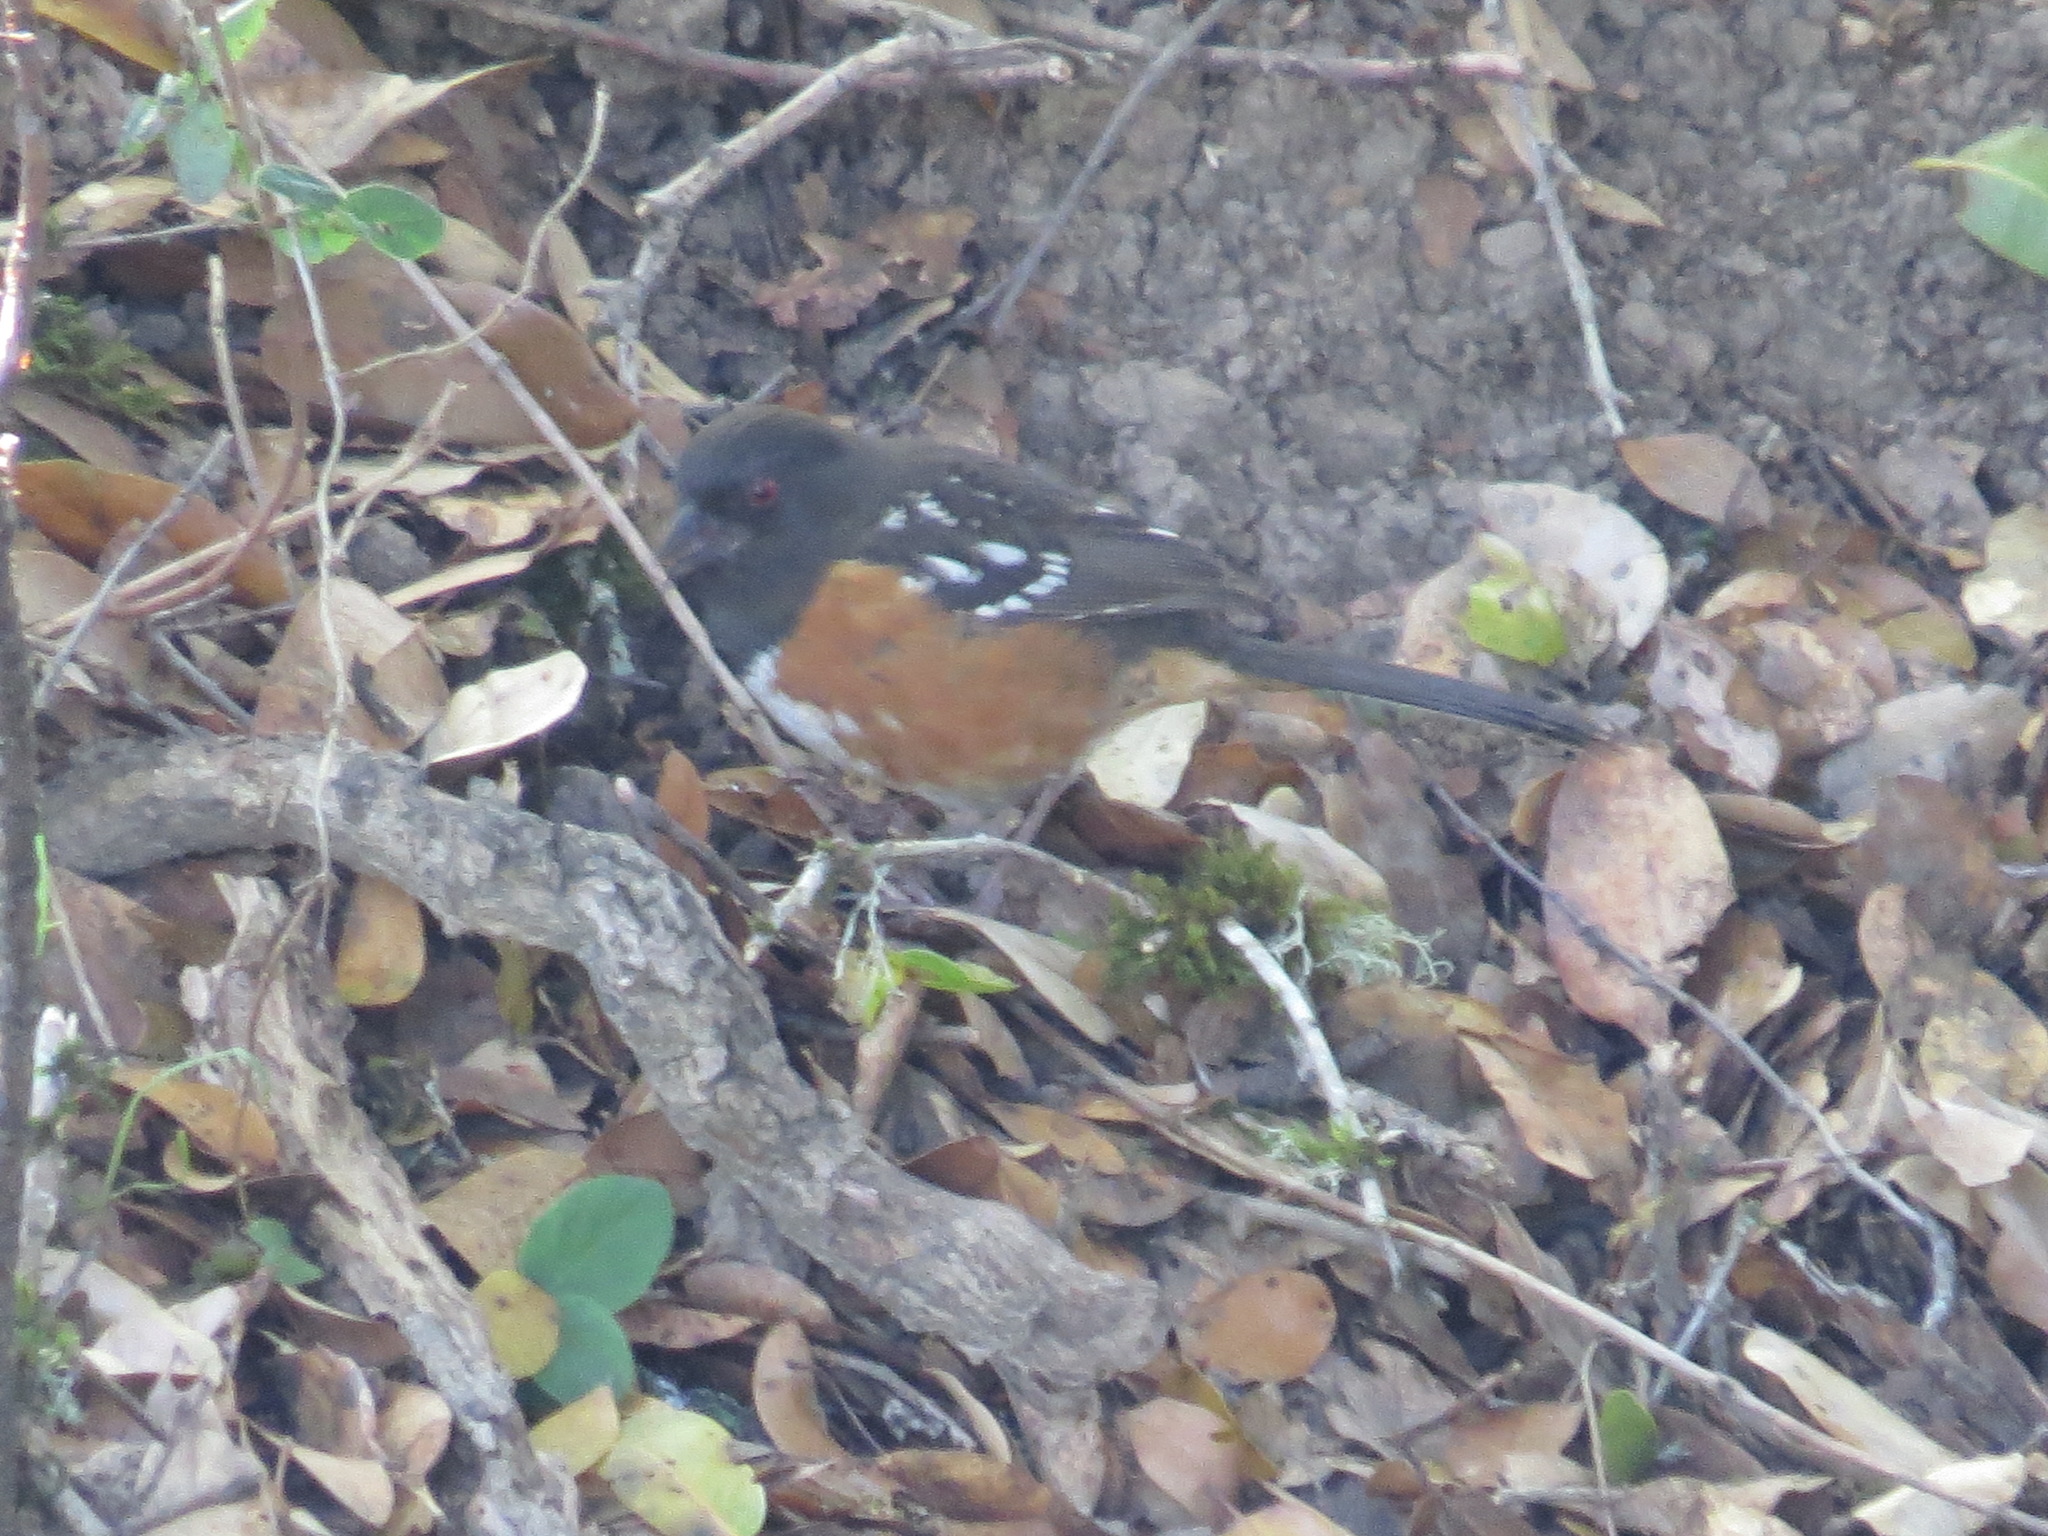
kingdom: Animalia
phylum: Chordata
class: Aves
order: Passeriformes
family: Passerellidae
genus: Pipilo
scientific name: Pipilo maculatus
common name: Spotted towhee
